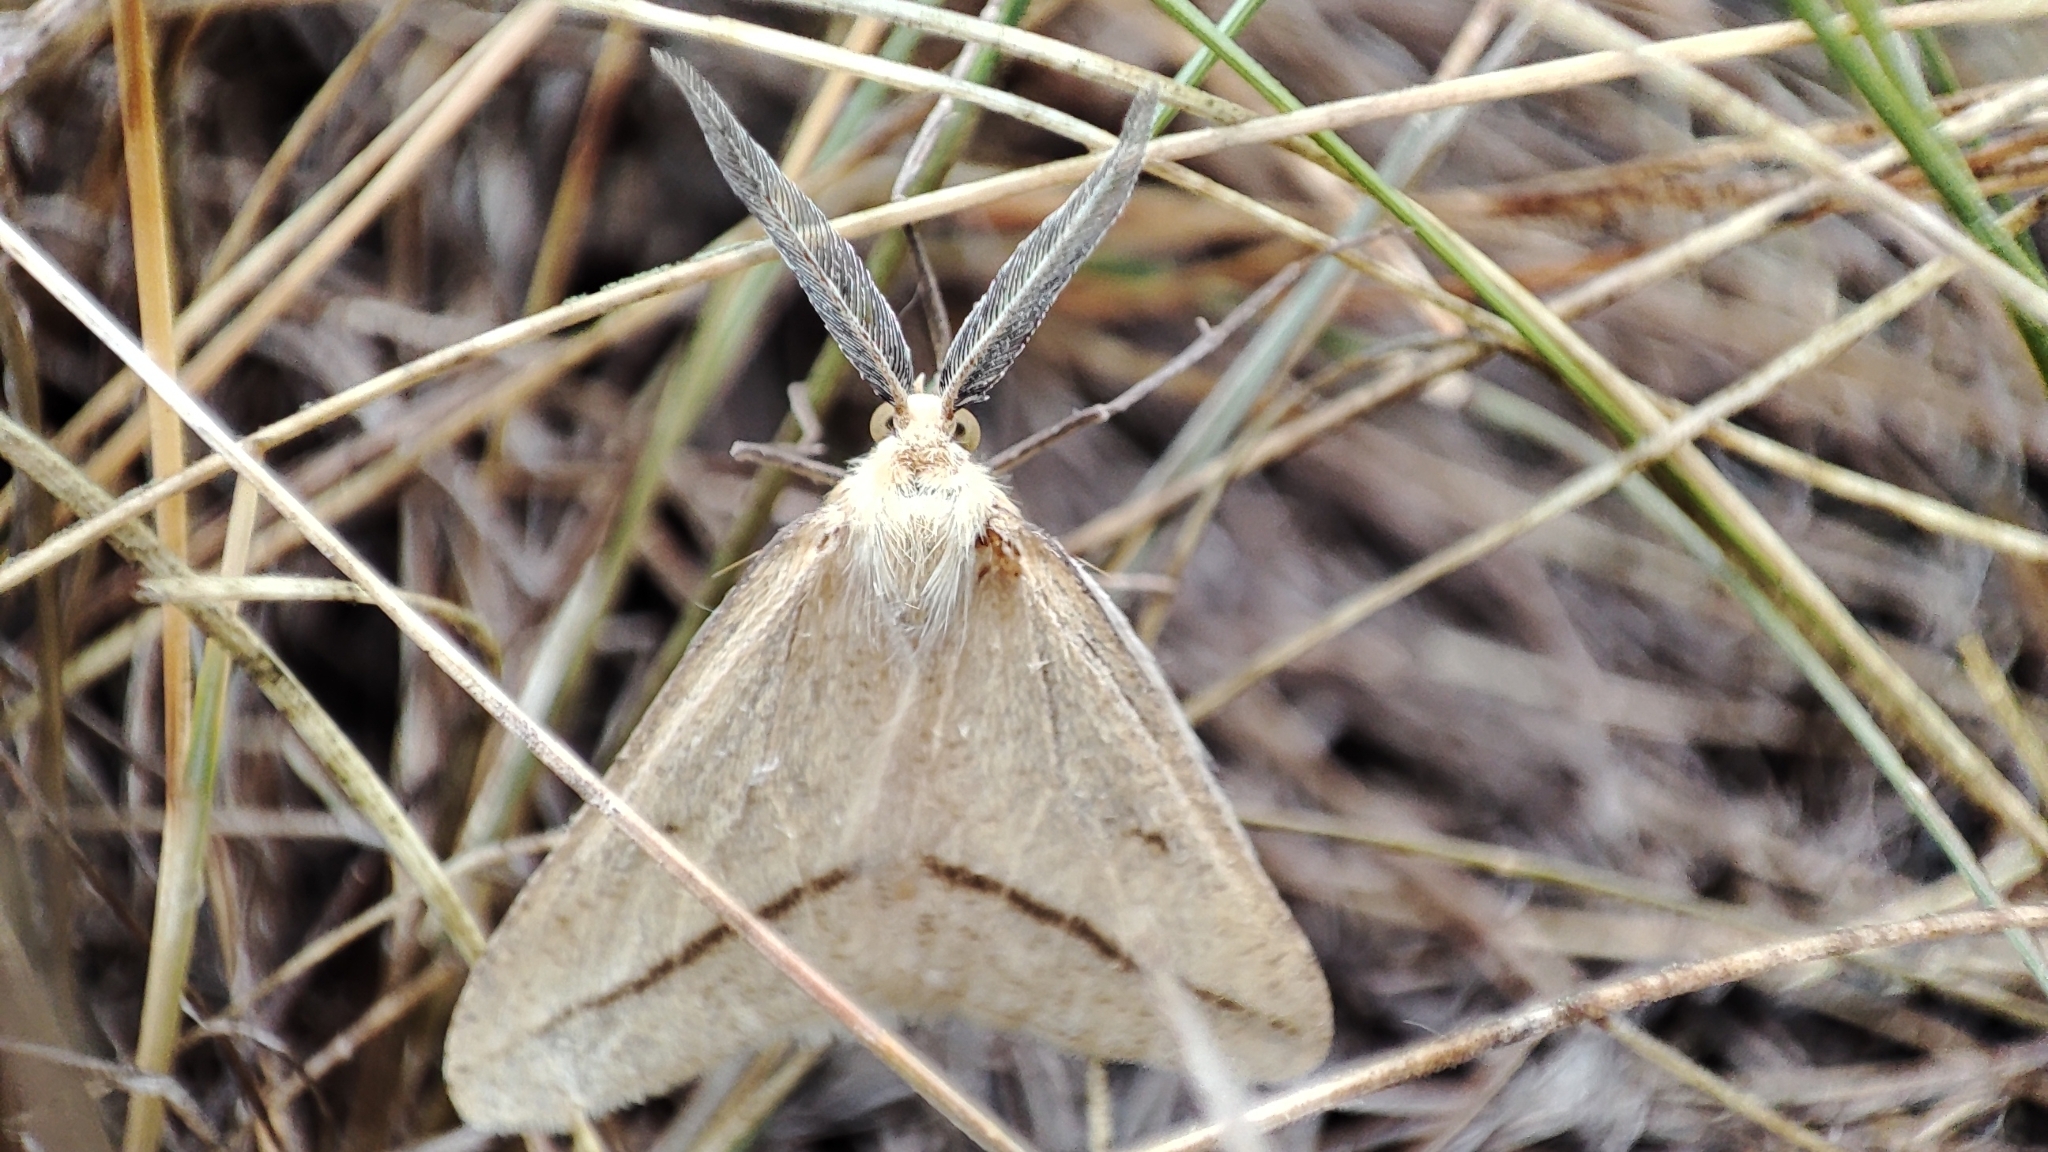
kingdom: Animalia
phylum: Arthropoda
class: Insecta
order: Lepidoptera
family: Geometridae
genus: Aspitates
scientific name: Aspitates gilvaria
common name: Straw belle
